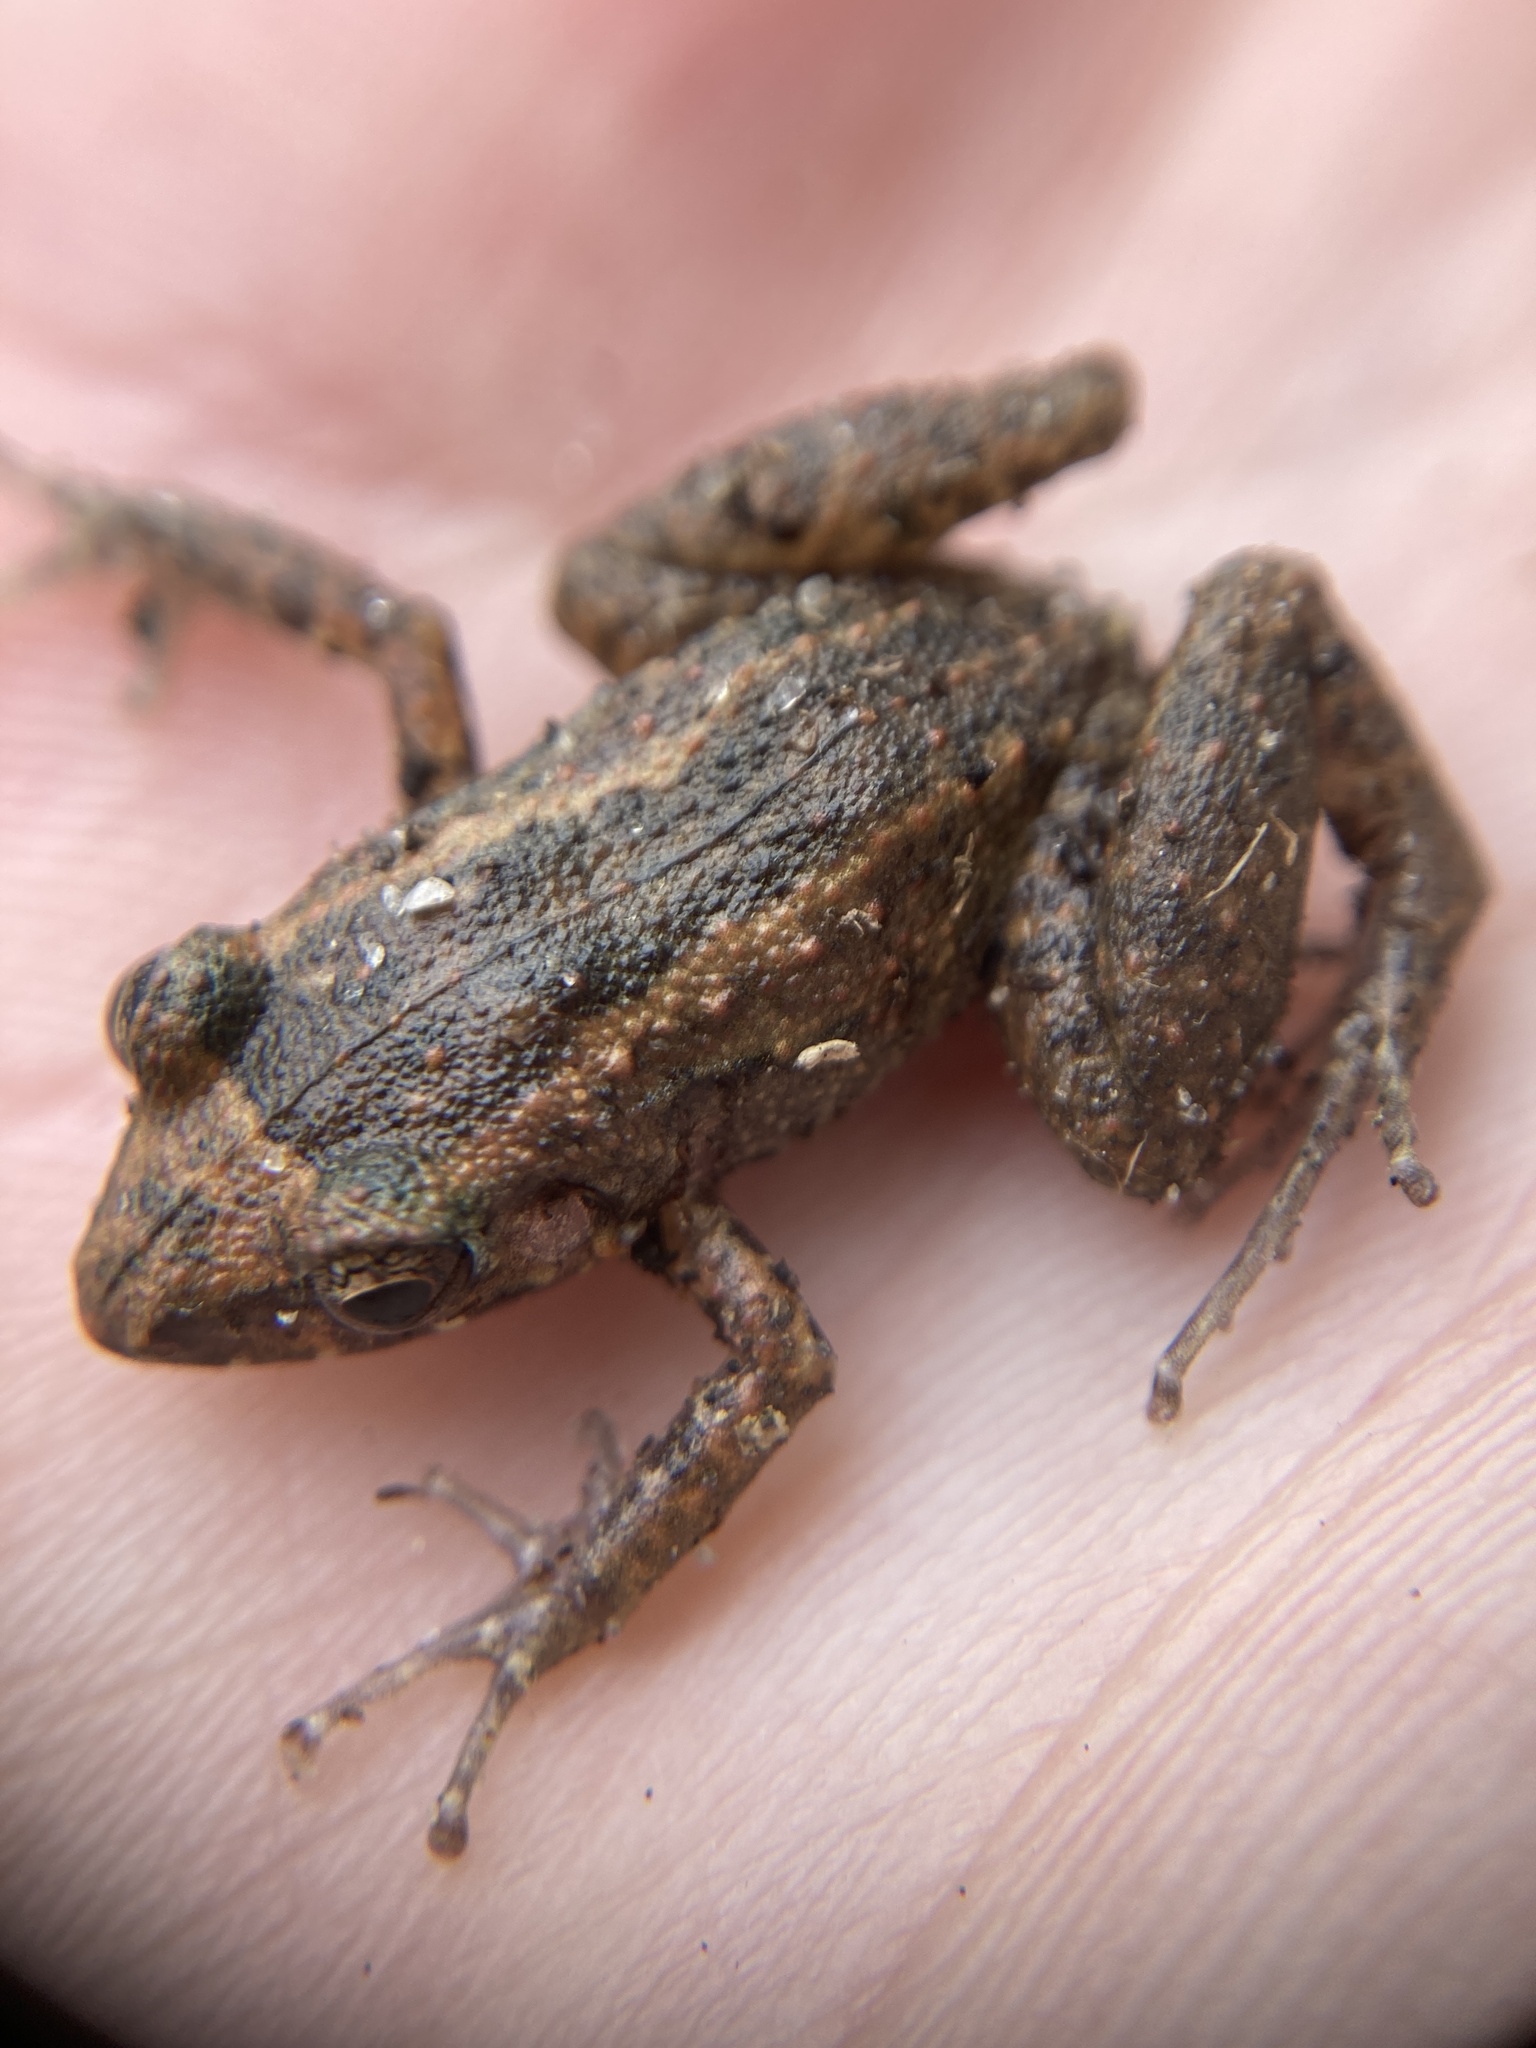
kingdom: Animalia
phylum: Chordata
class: Amphibia
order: Anura
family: Eleutherodactylidae
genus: Eleutherodactylus
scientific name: Eleutherodactylus planirostris
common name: Greenhouse frog
